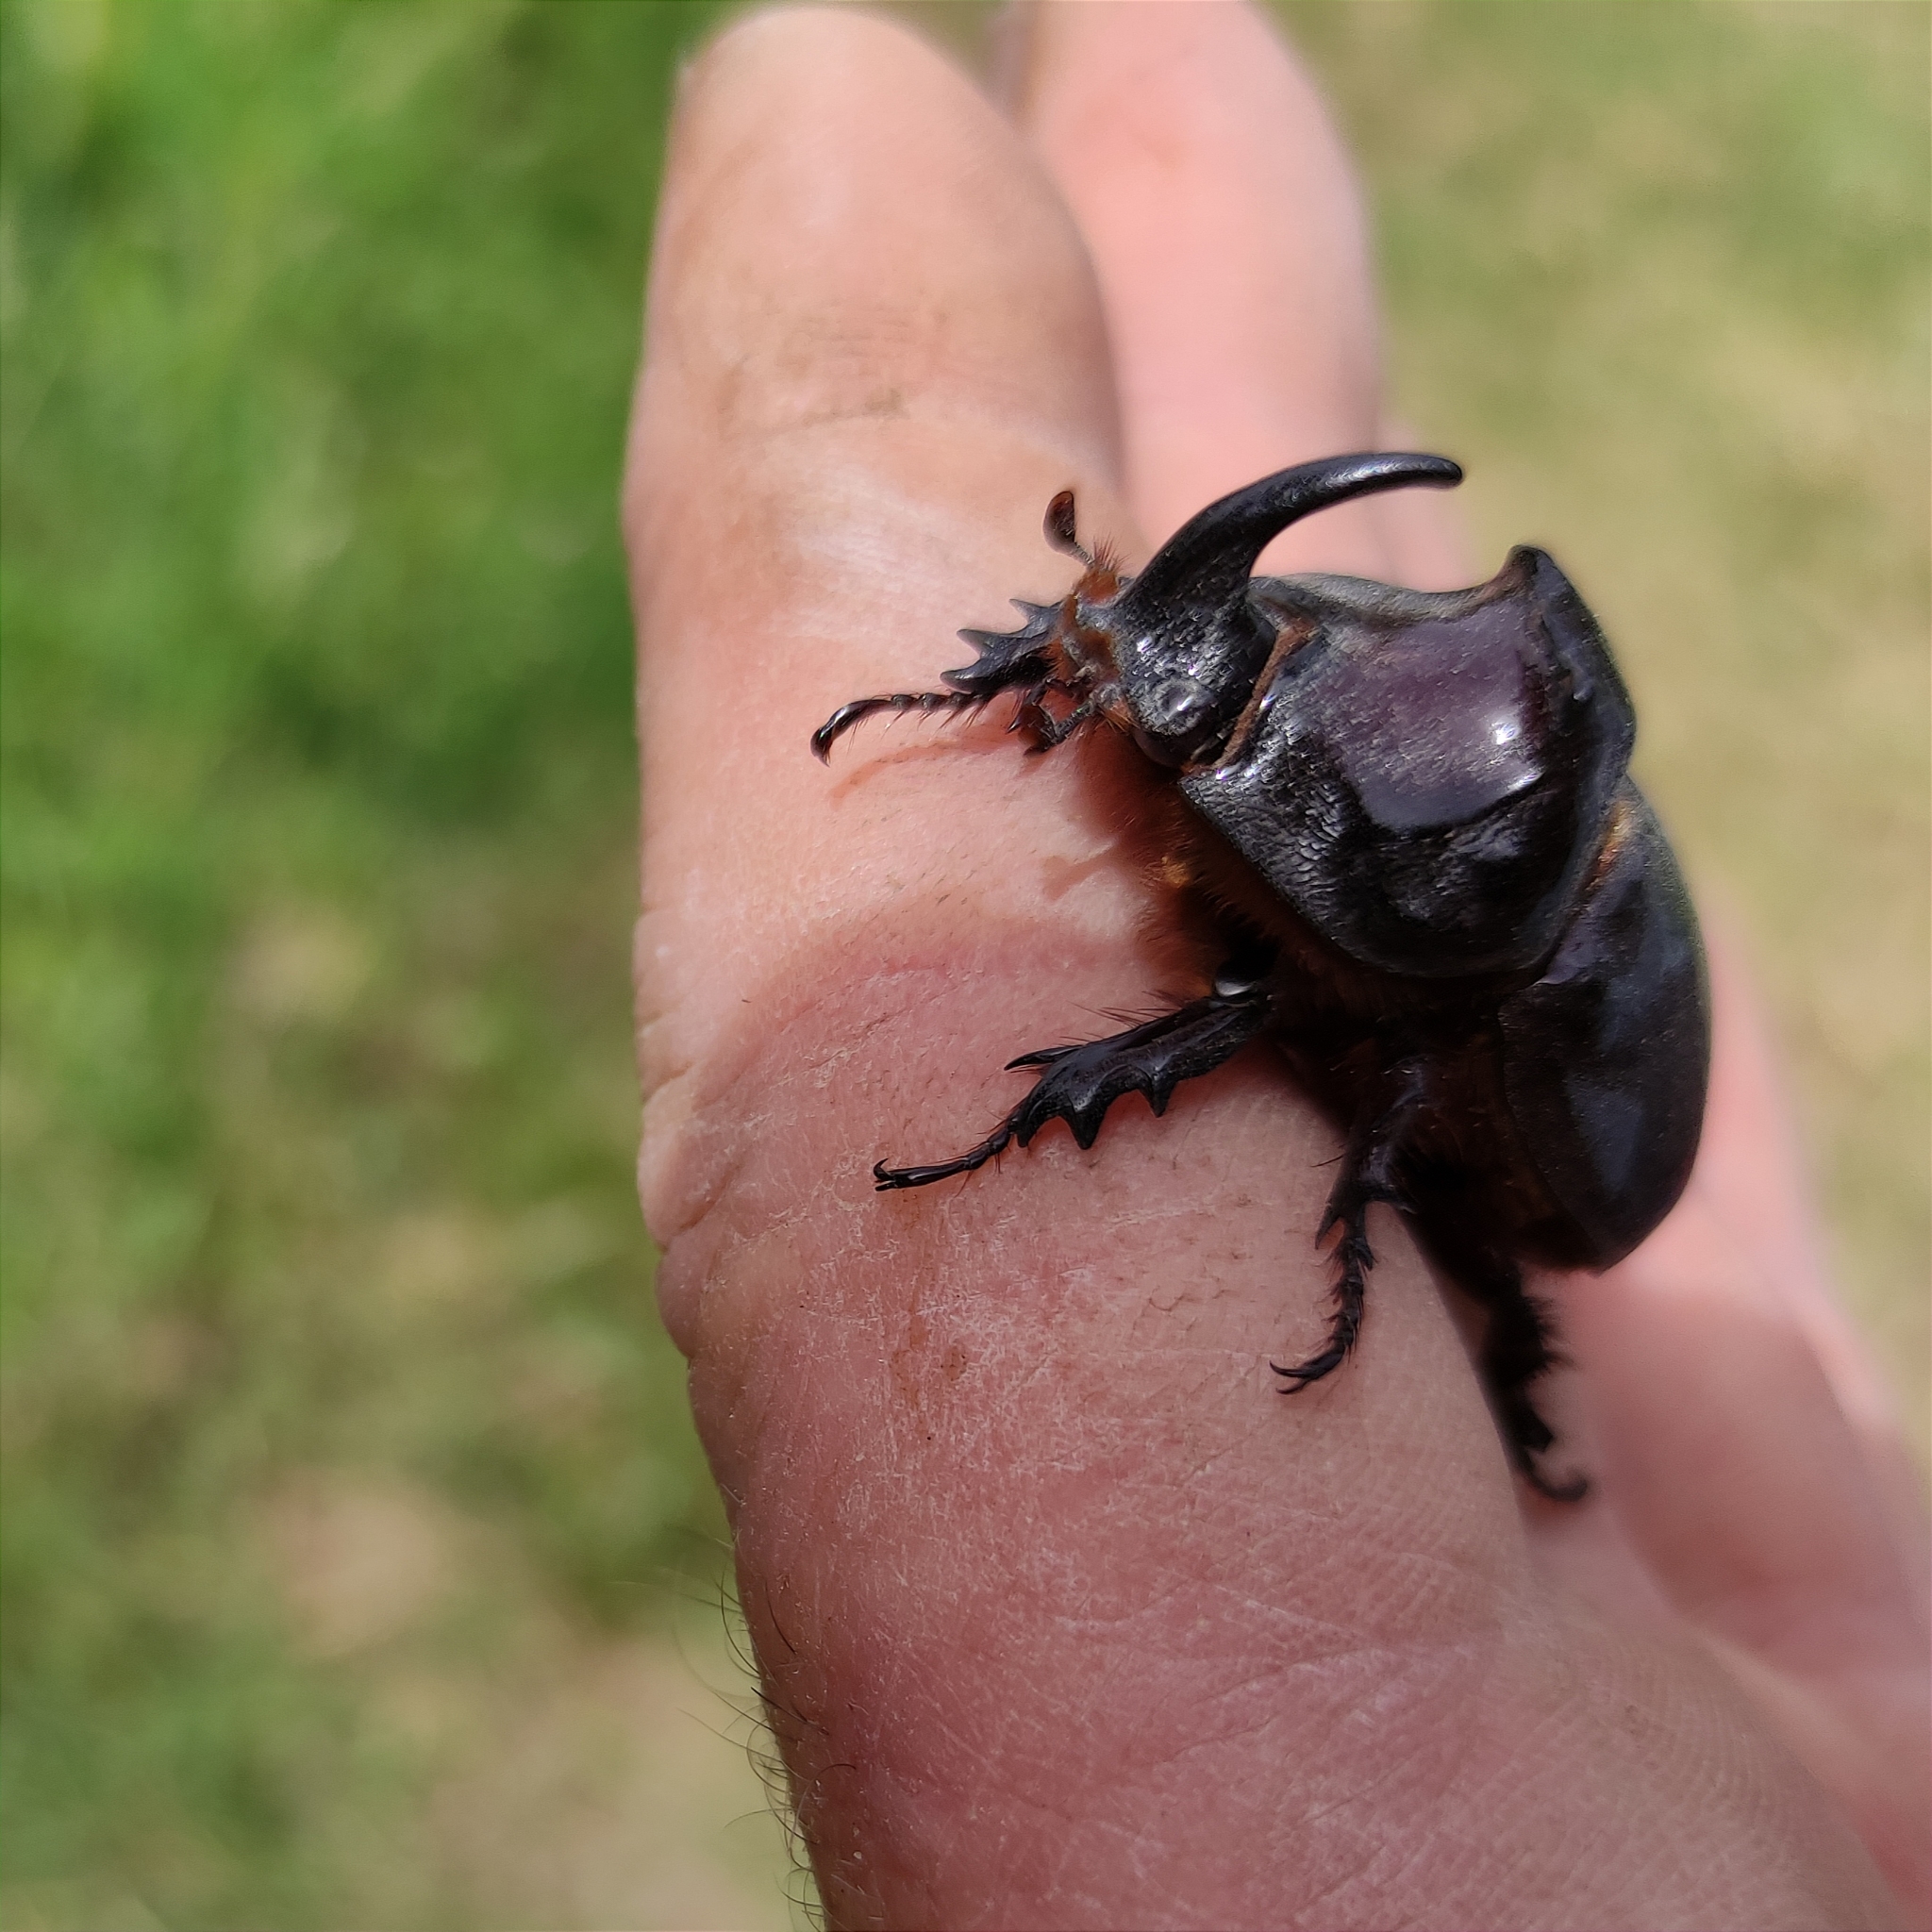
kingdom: Animalia
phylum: Arthropoda
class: Insecta
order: Coleoptera
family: Scarabaeidae
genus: Oryctes
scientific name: Oryctes nasicornis
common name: European rhinoceros beetle
